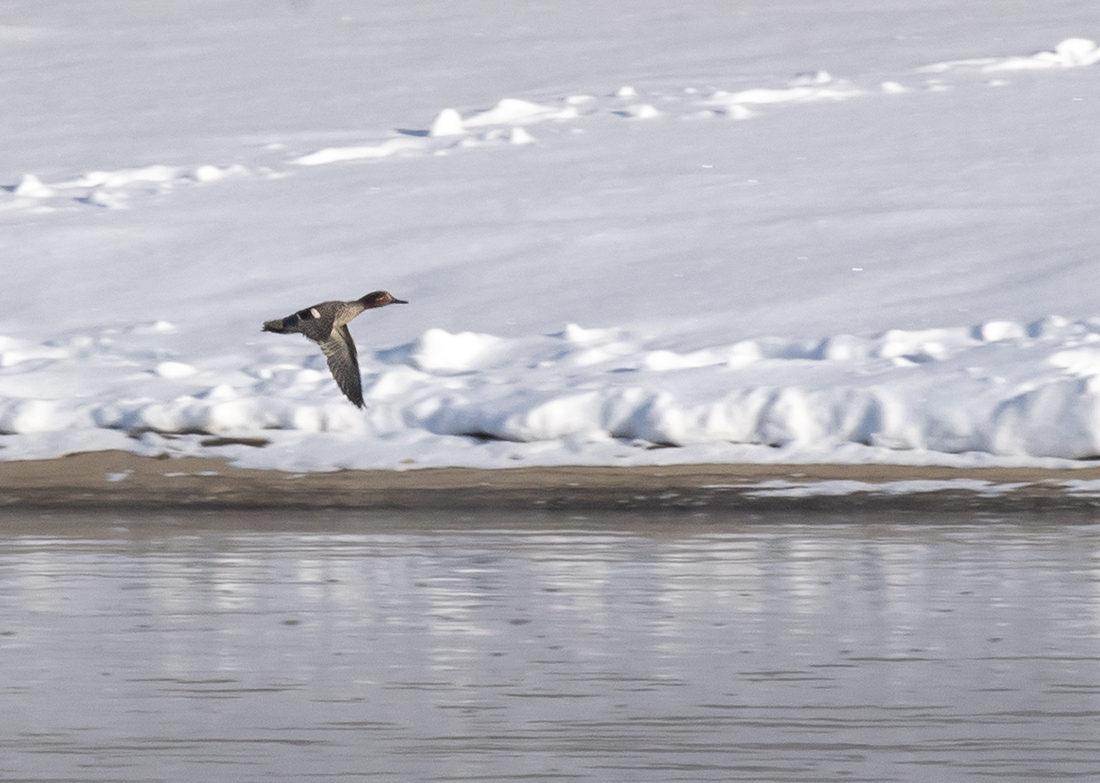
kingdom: Animalia
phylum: Chordata
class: Aves
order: Anseriformes
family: Anatidae
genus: Anas
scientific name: Anas crecca
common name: Eurasian teal
